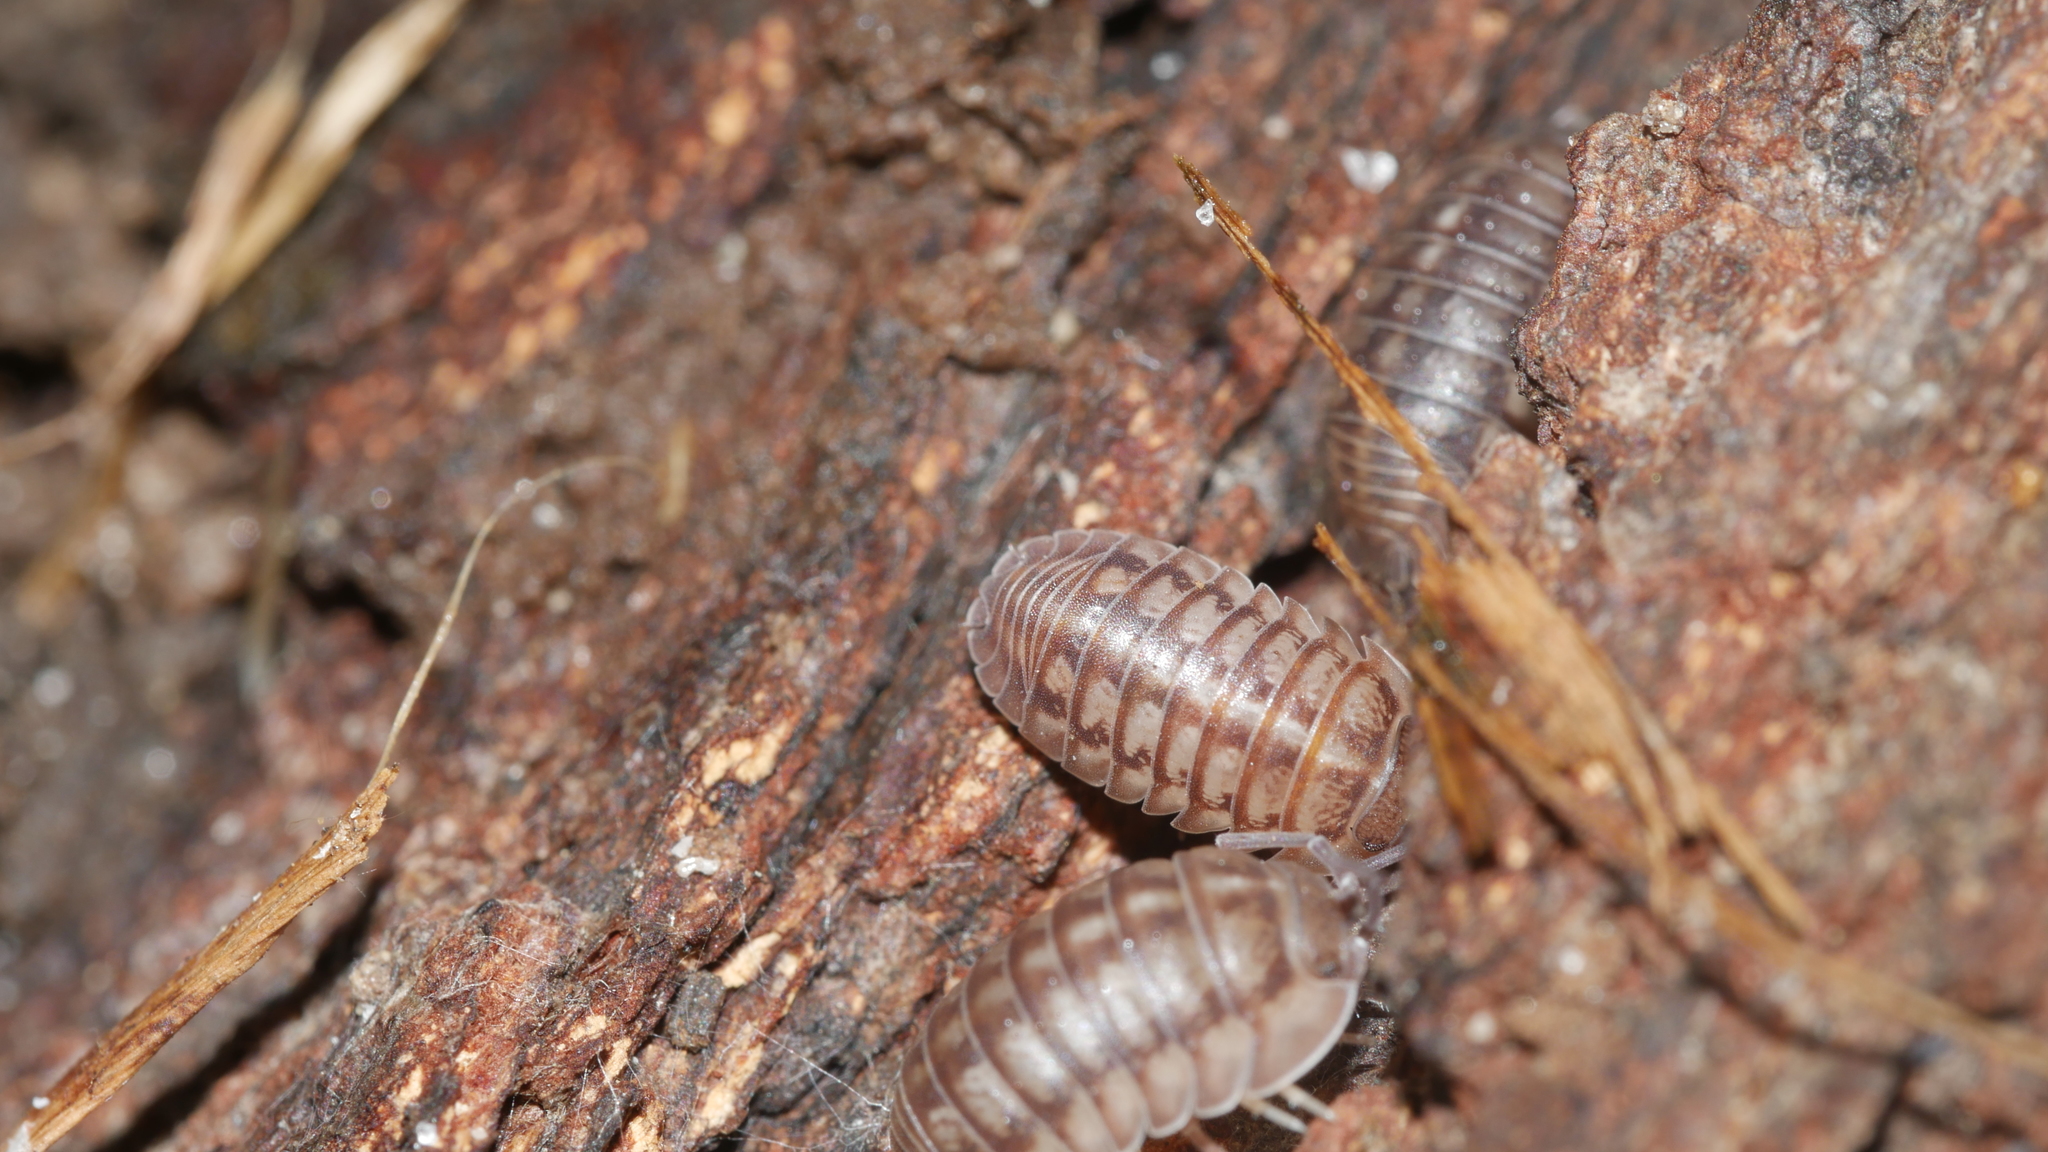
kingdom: Animalia
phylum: Arthropoda
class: Malacostraca
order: Isopoda
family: Armadillidiidae
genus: Armadillidium
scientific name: Armadillidium nasatum
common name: Isopod
